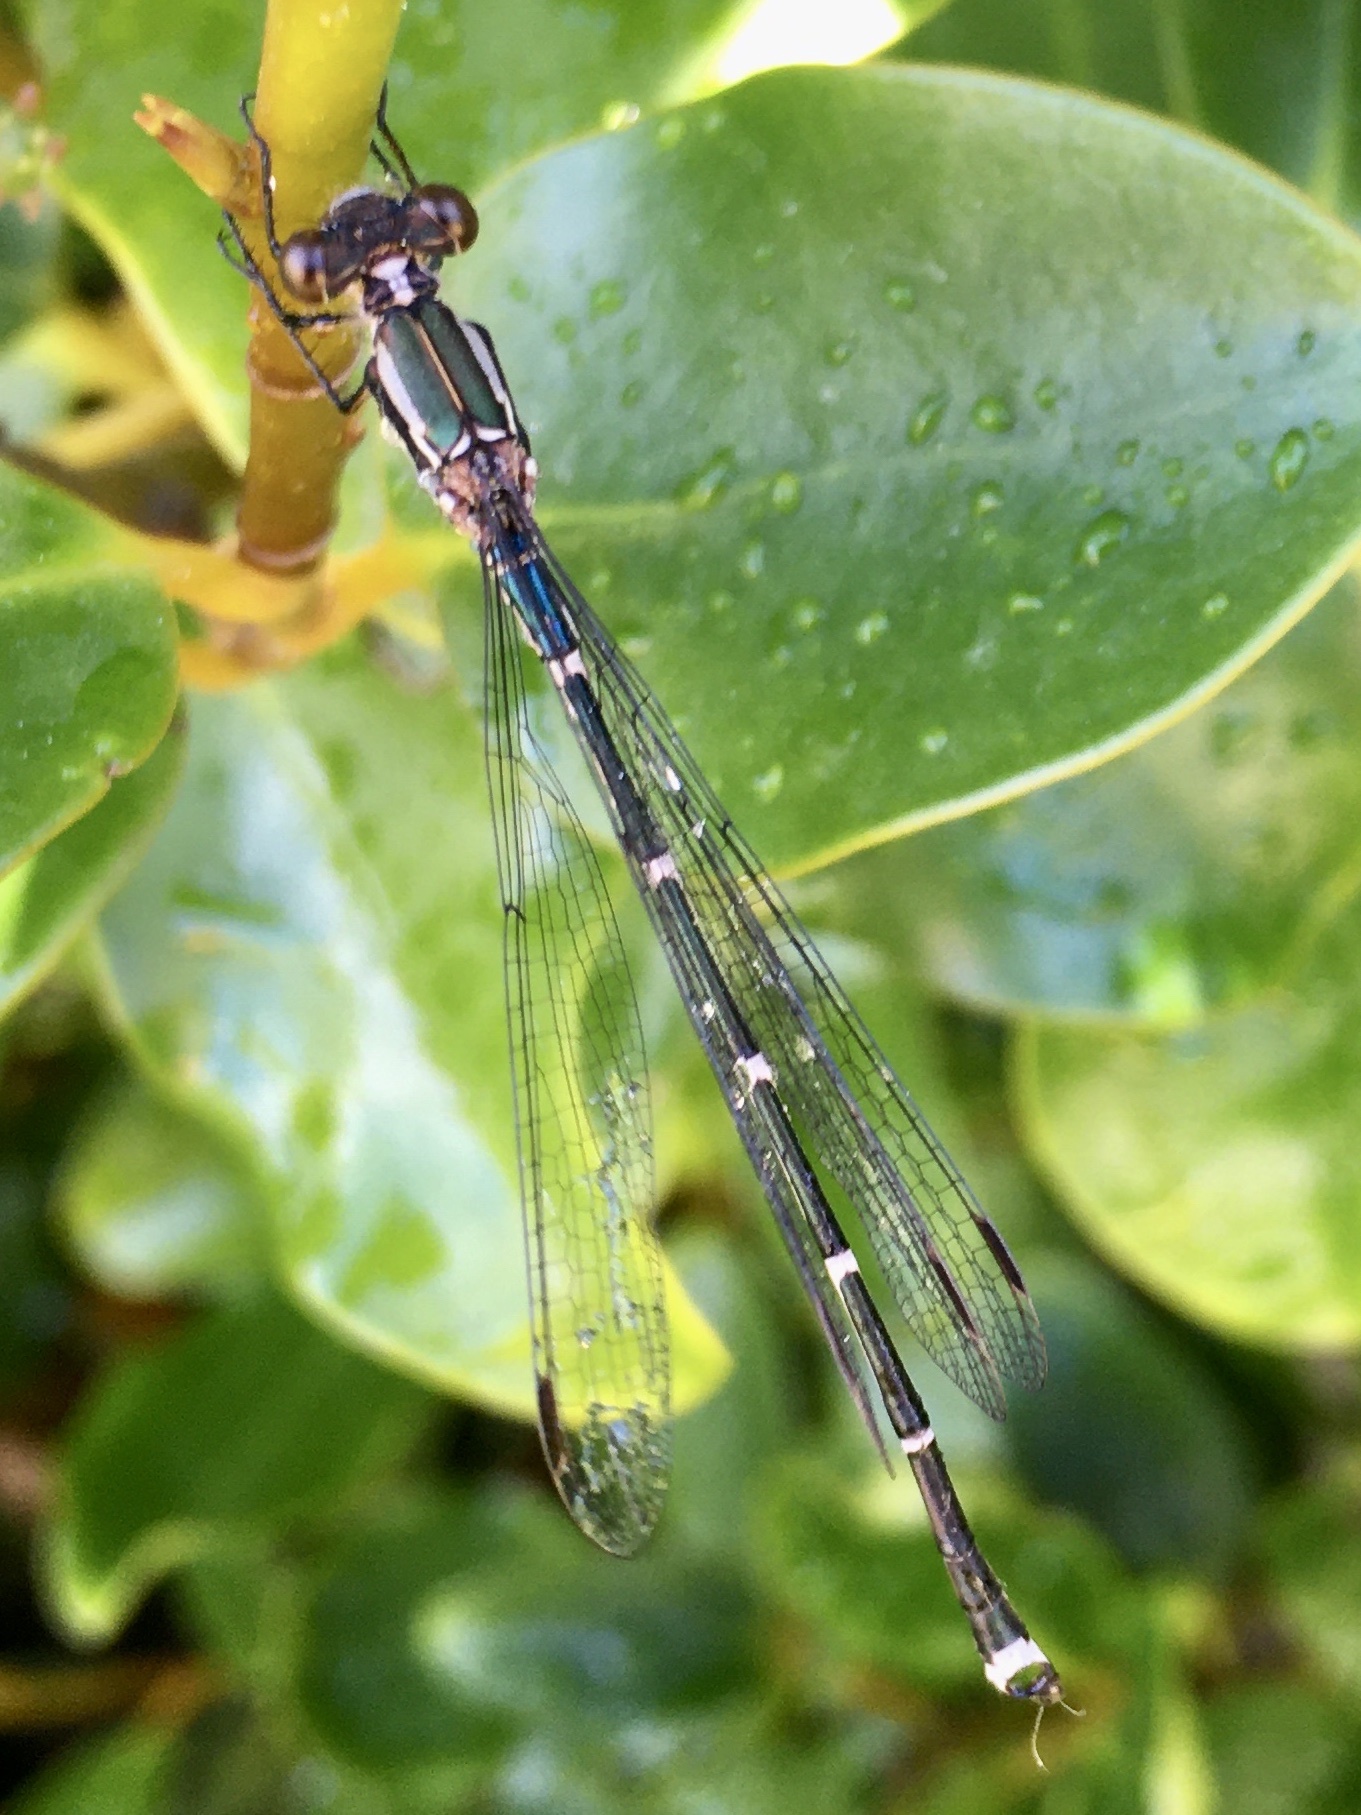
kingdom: Animalia
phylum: Arthropoda
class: Insecta
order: Odonata
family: Lestidae
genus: Austrolestes
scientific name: Austrolestes colensonis
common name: Blue damselfly
